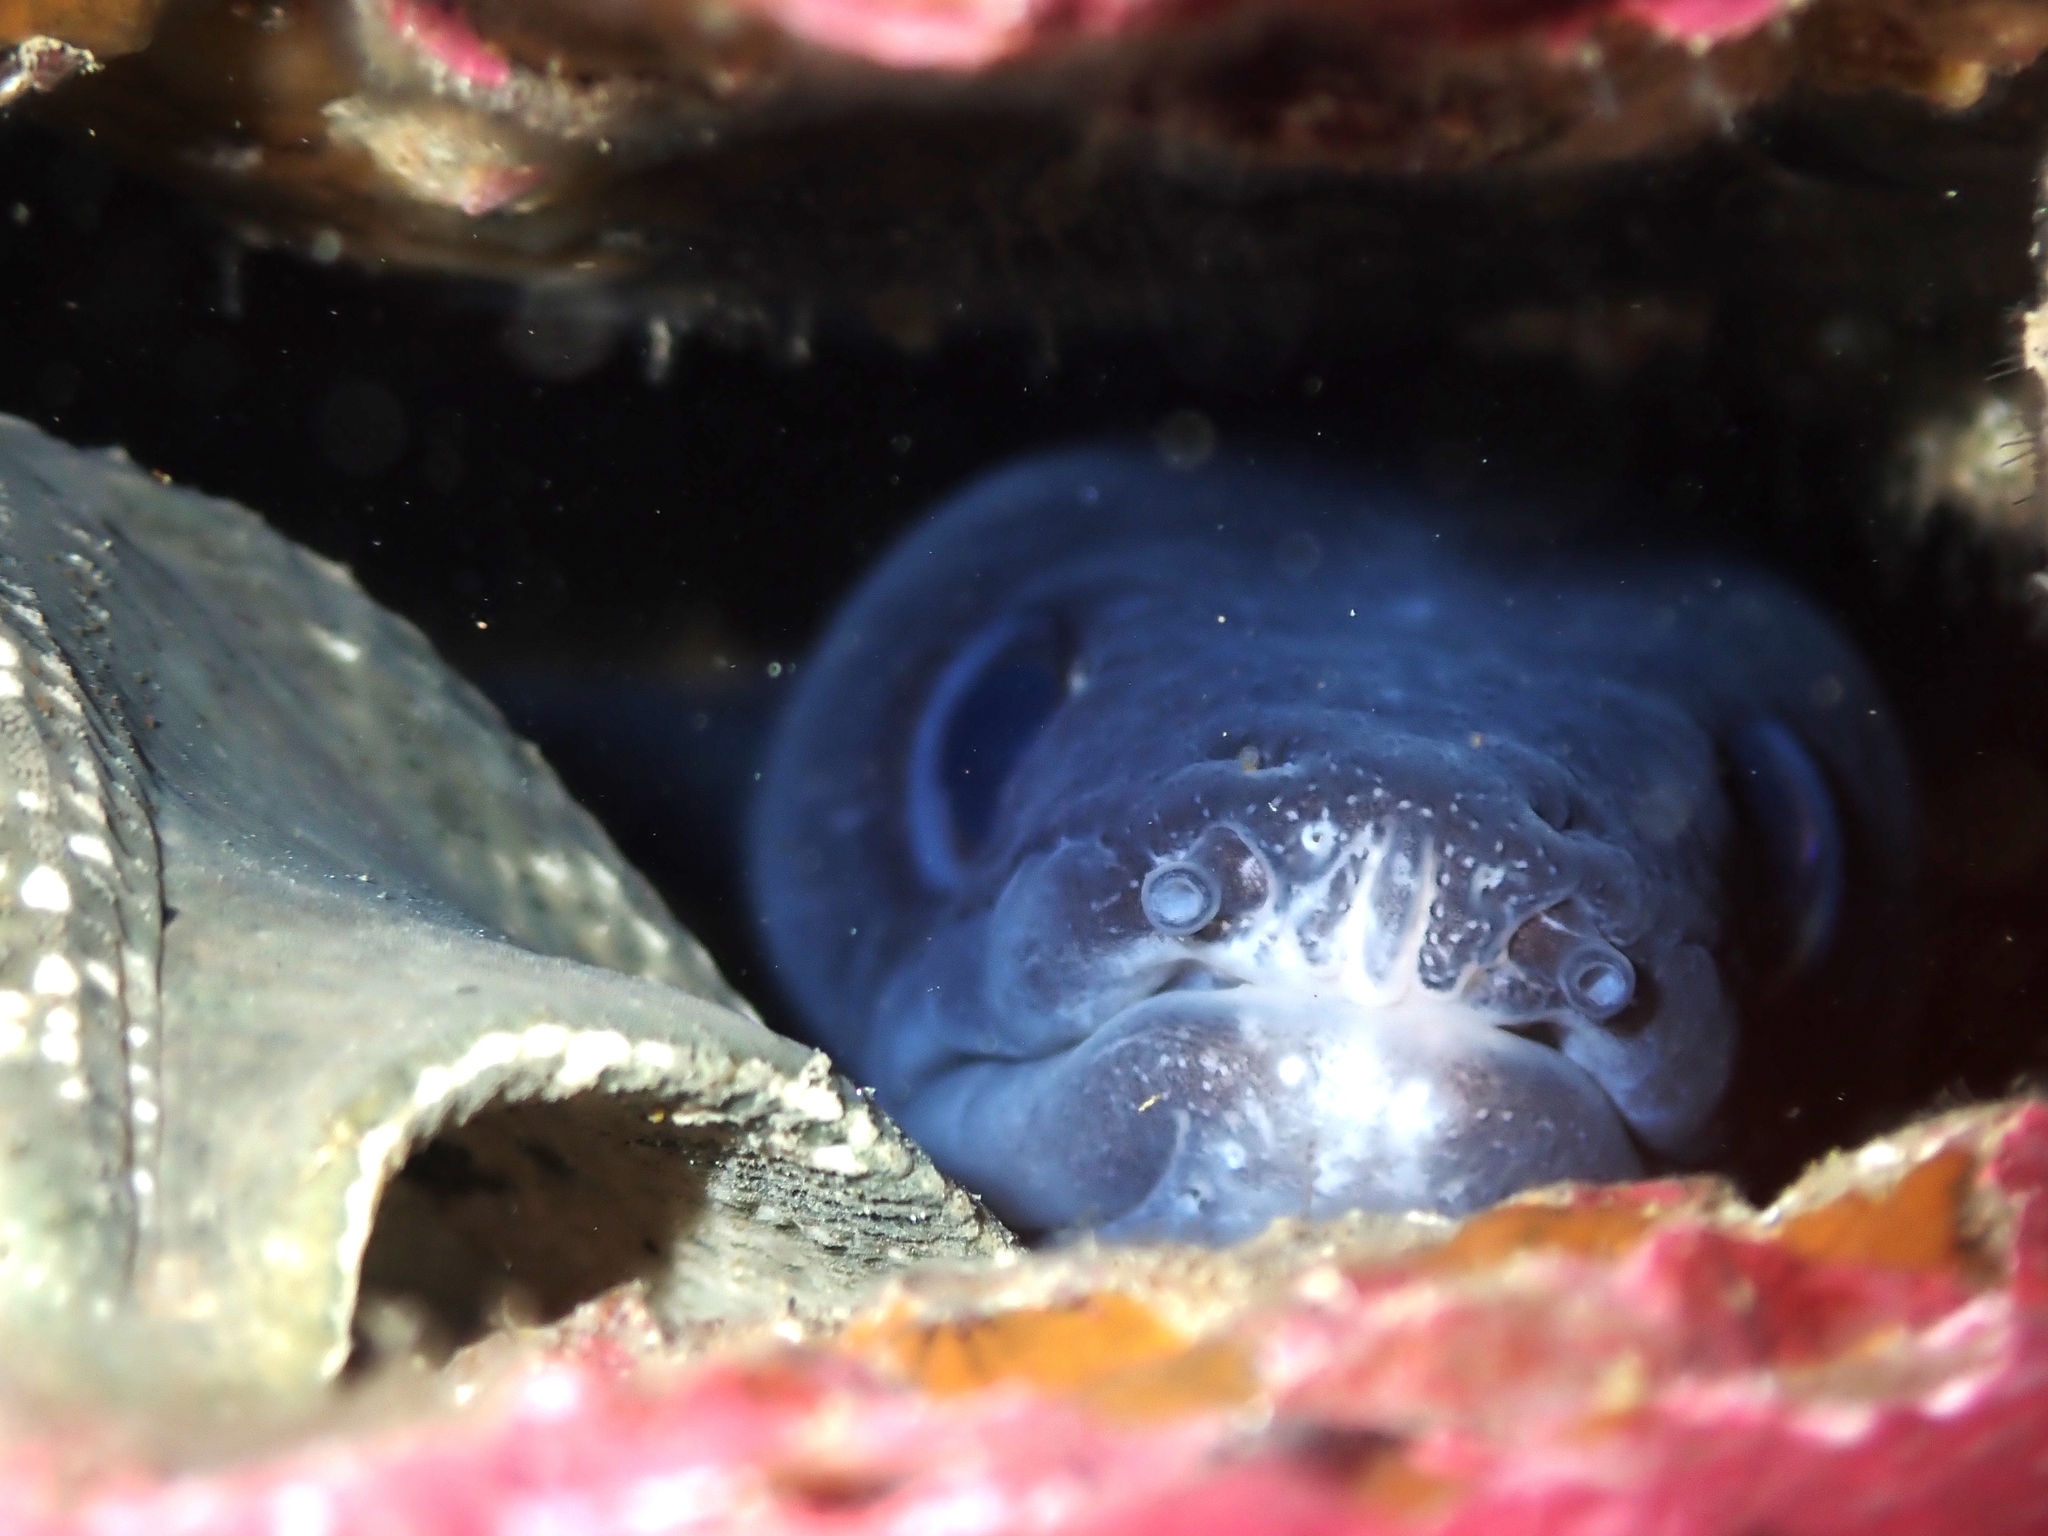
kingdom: Animalia
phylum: Chordata
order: Anguilliformes
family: Congridae
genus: Conger
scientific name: Conger verreauxi
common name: Conger eel
